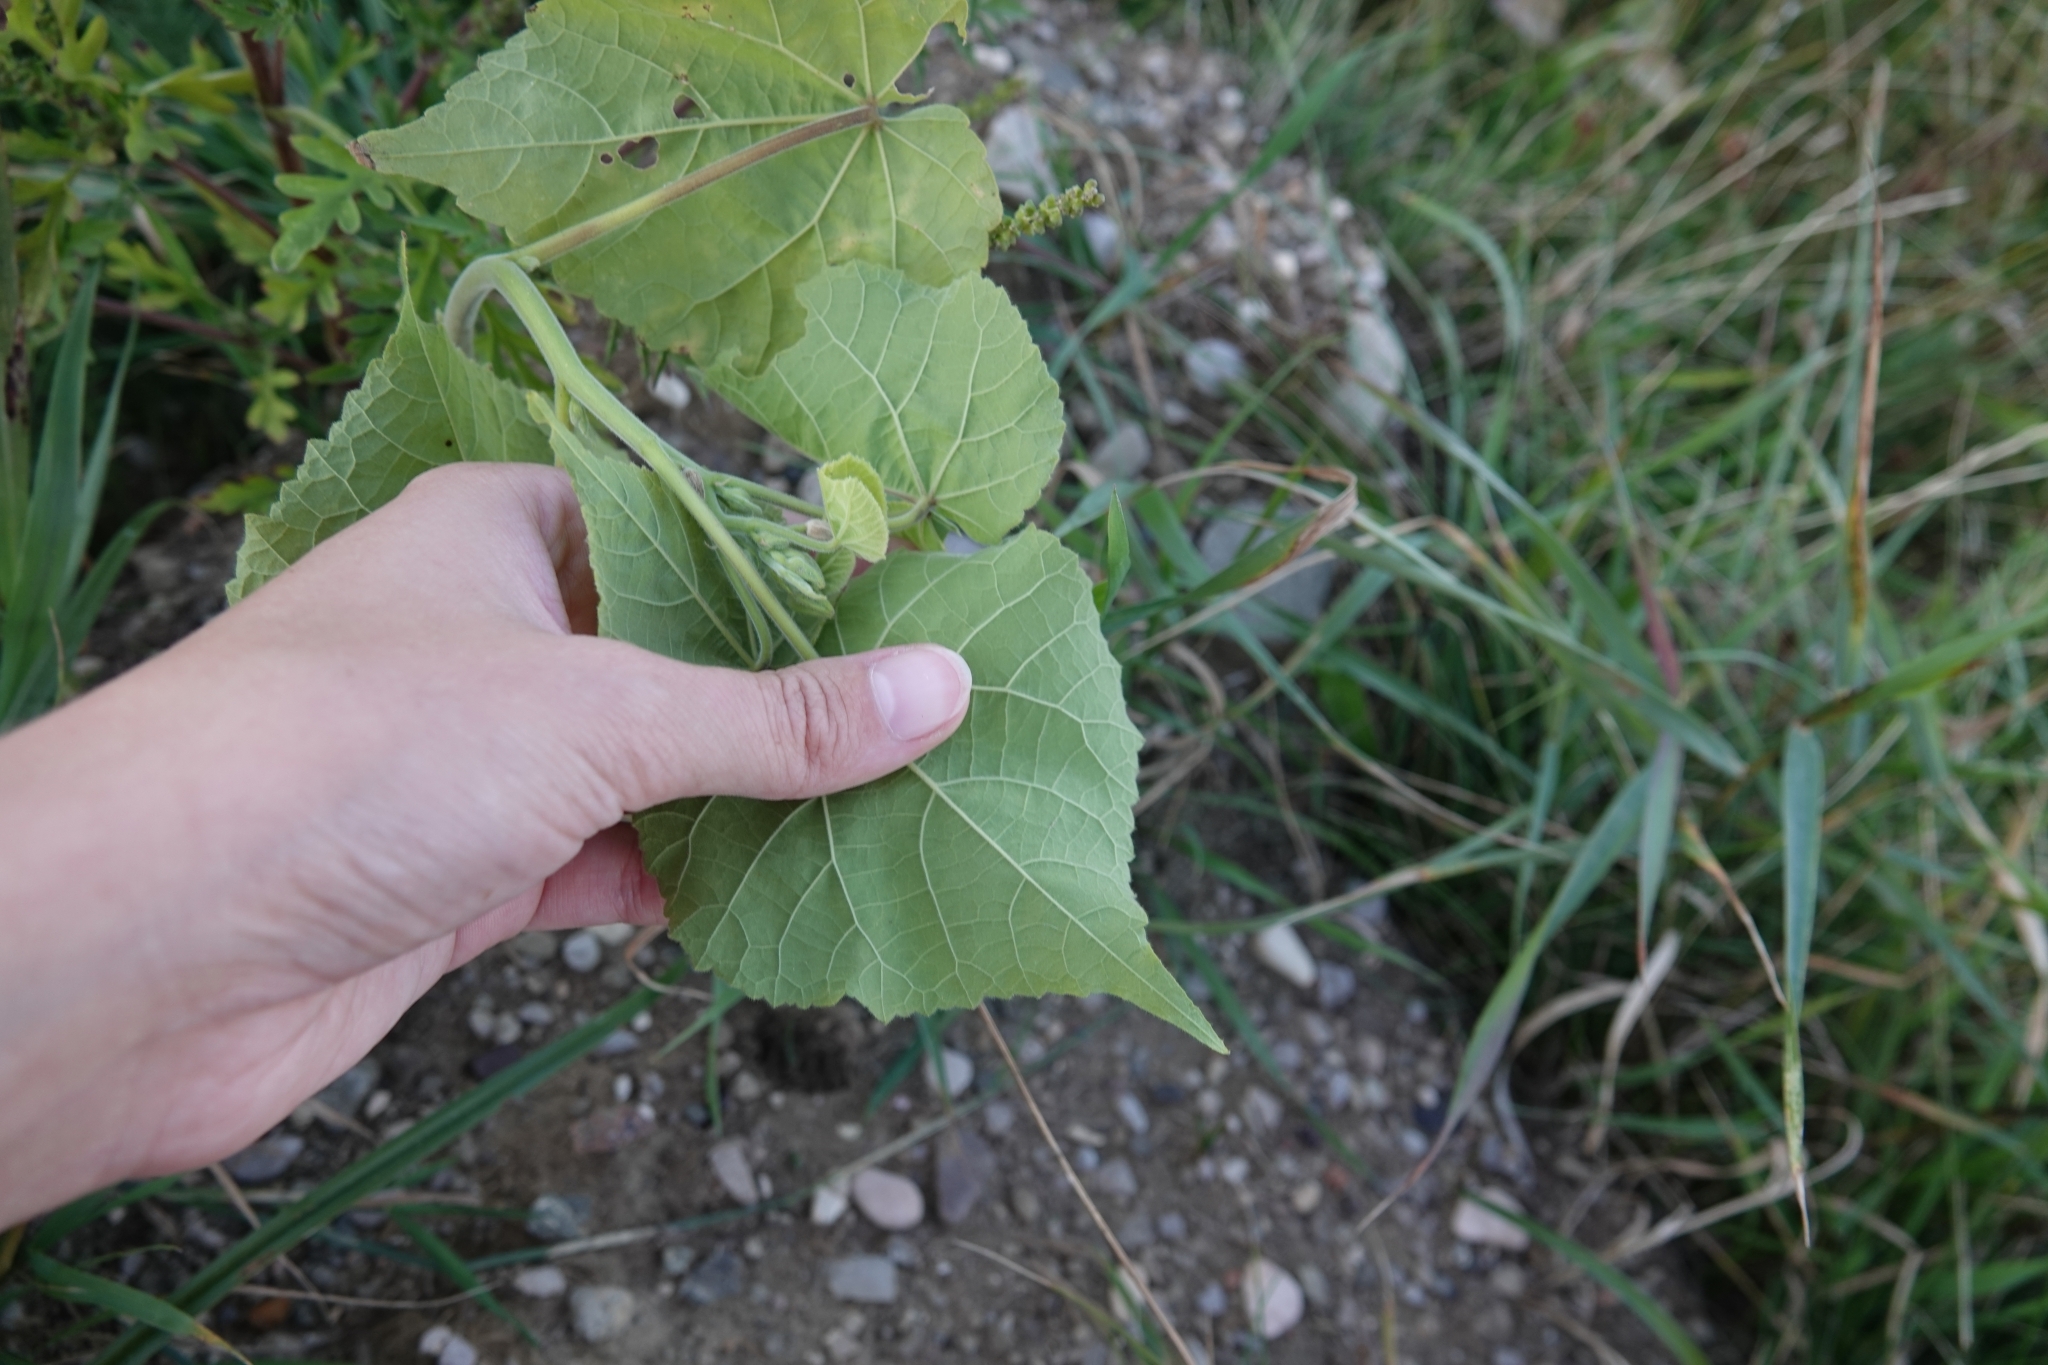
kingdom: Plantae
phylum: Tracheophyta
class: Magnoliopsida
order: Malvales
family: Malvaceae
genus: Abutilon
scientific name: Abutilon theophrasti
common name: Velvetleaf
